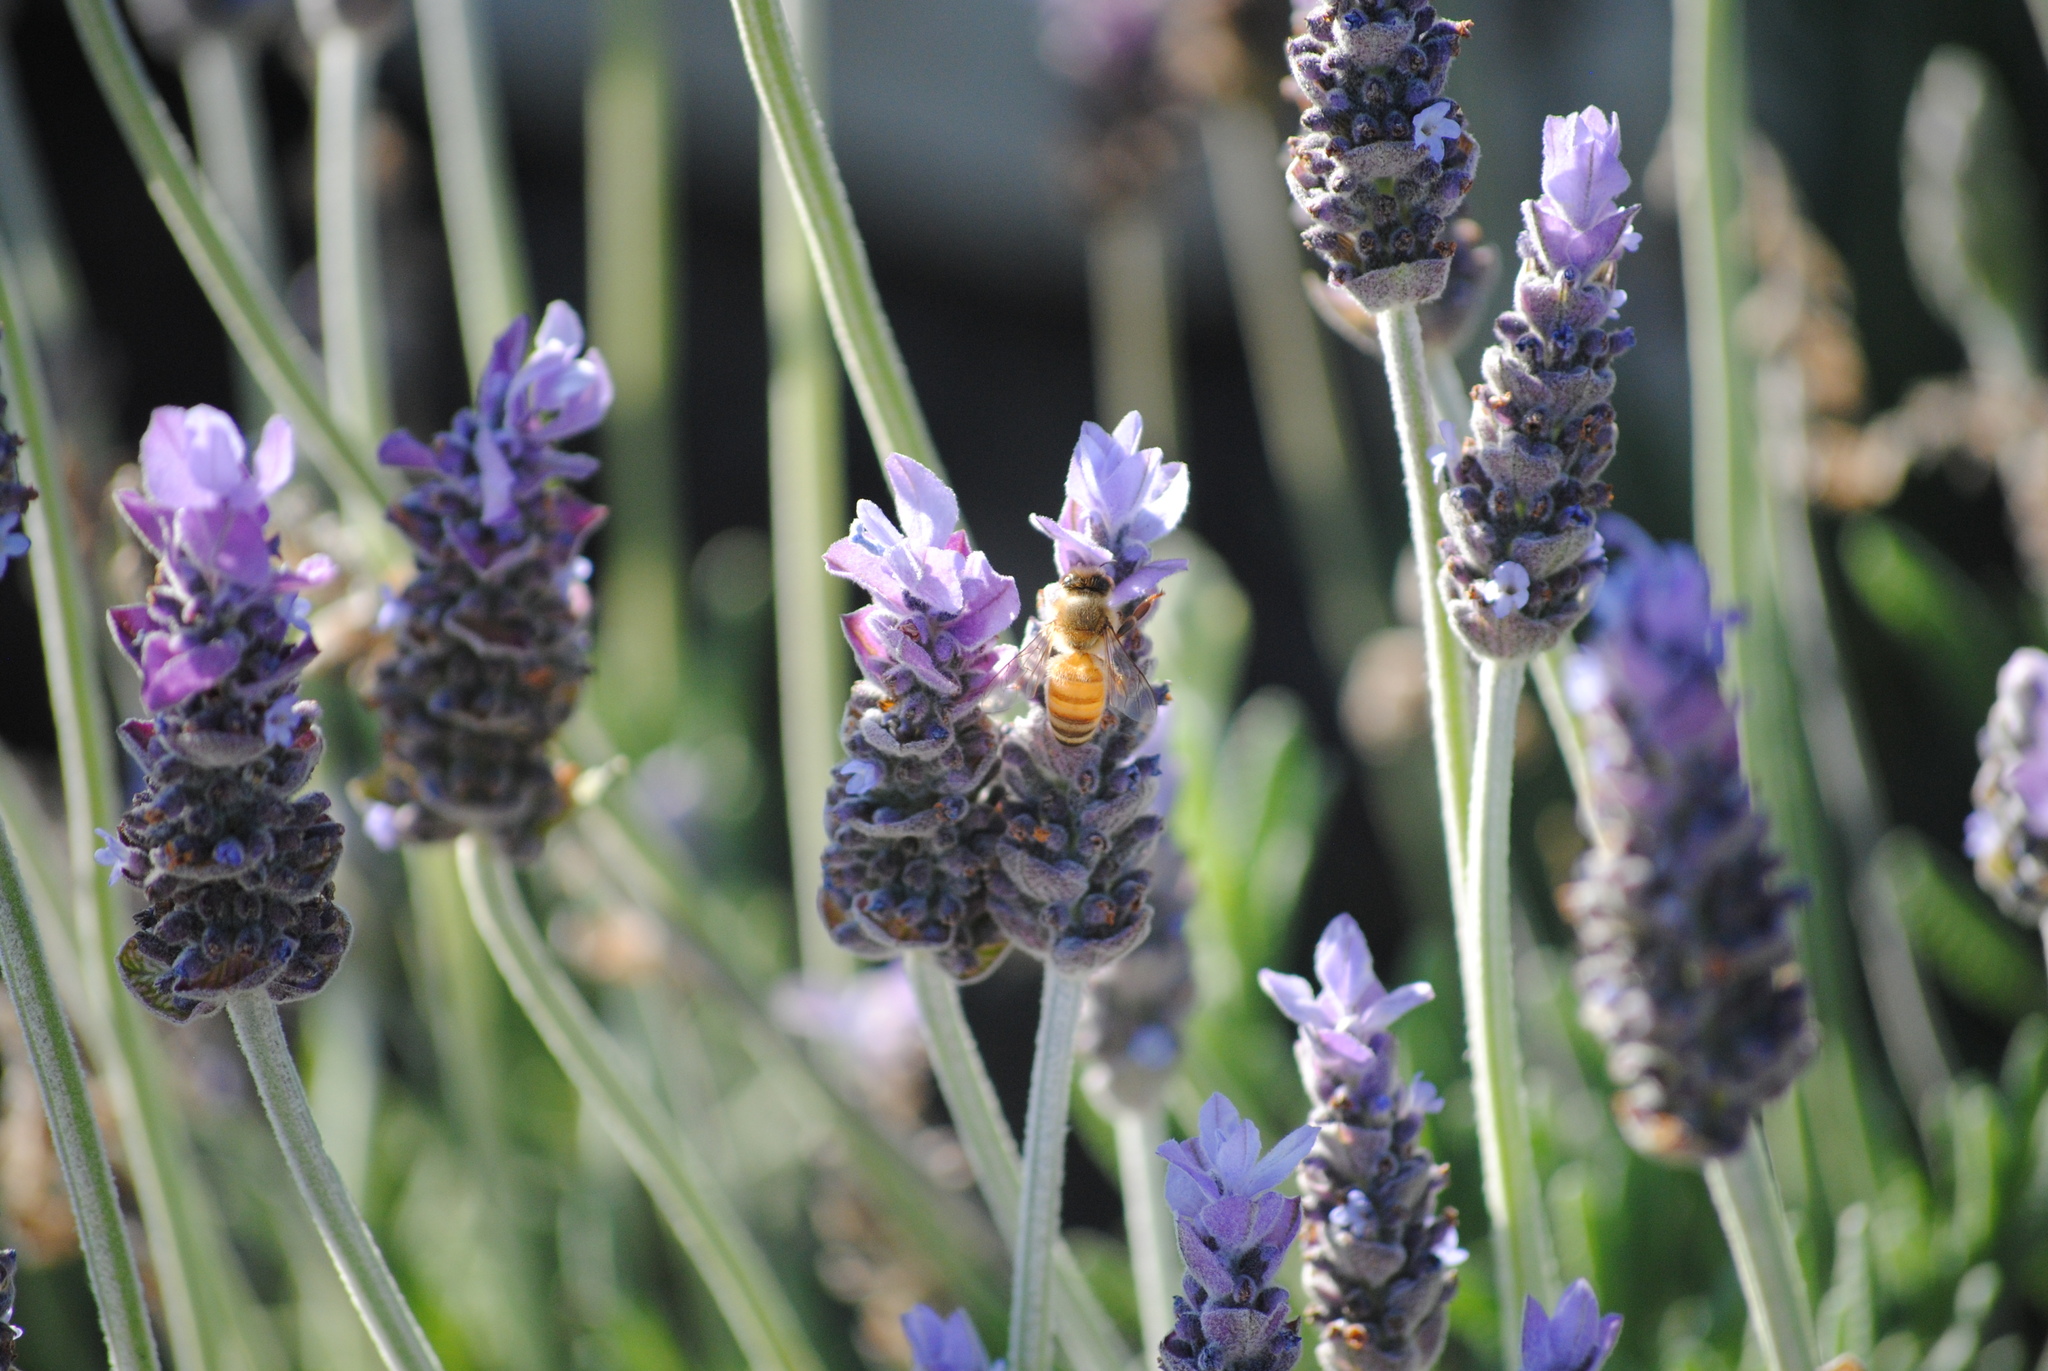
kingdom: Animalia
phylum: Arthropoda
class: Insecta
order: Hymenoptera
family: Apidae
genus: Apis
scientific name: Apis mellifera
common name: Honey bee
